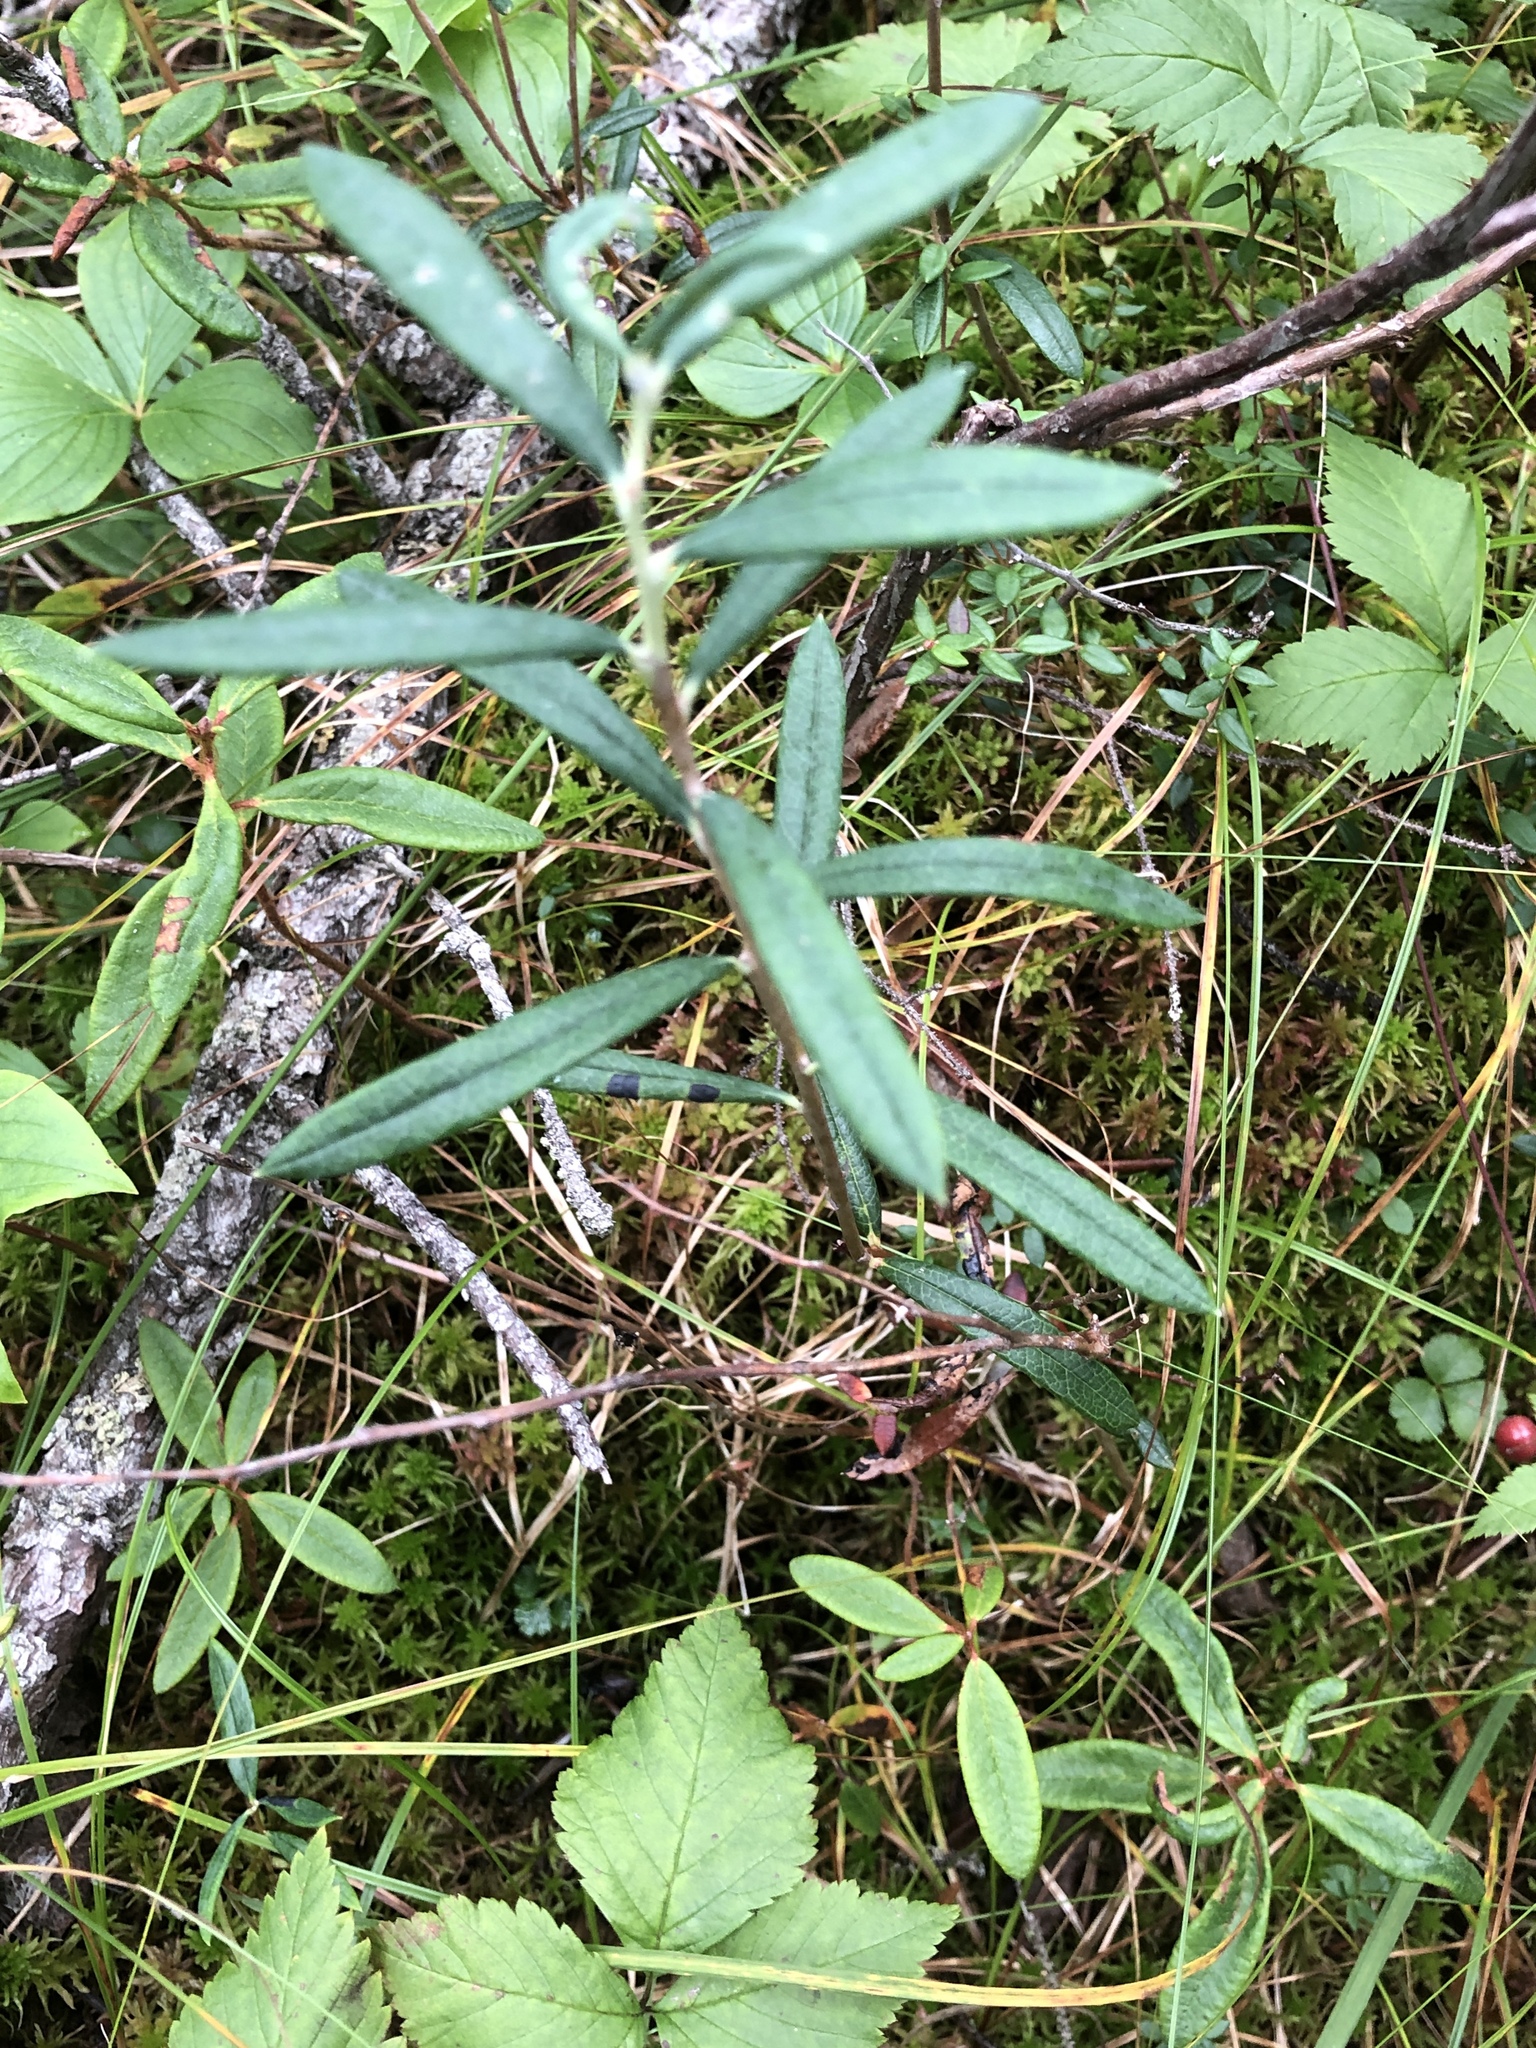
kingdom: Plantae
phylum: Tracheophyta
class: Magnoliopsida
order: Ericales
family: Ericaceae
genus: Andromeda
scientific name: Andromeda polifolia
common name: Bog-rosemary
